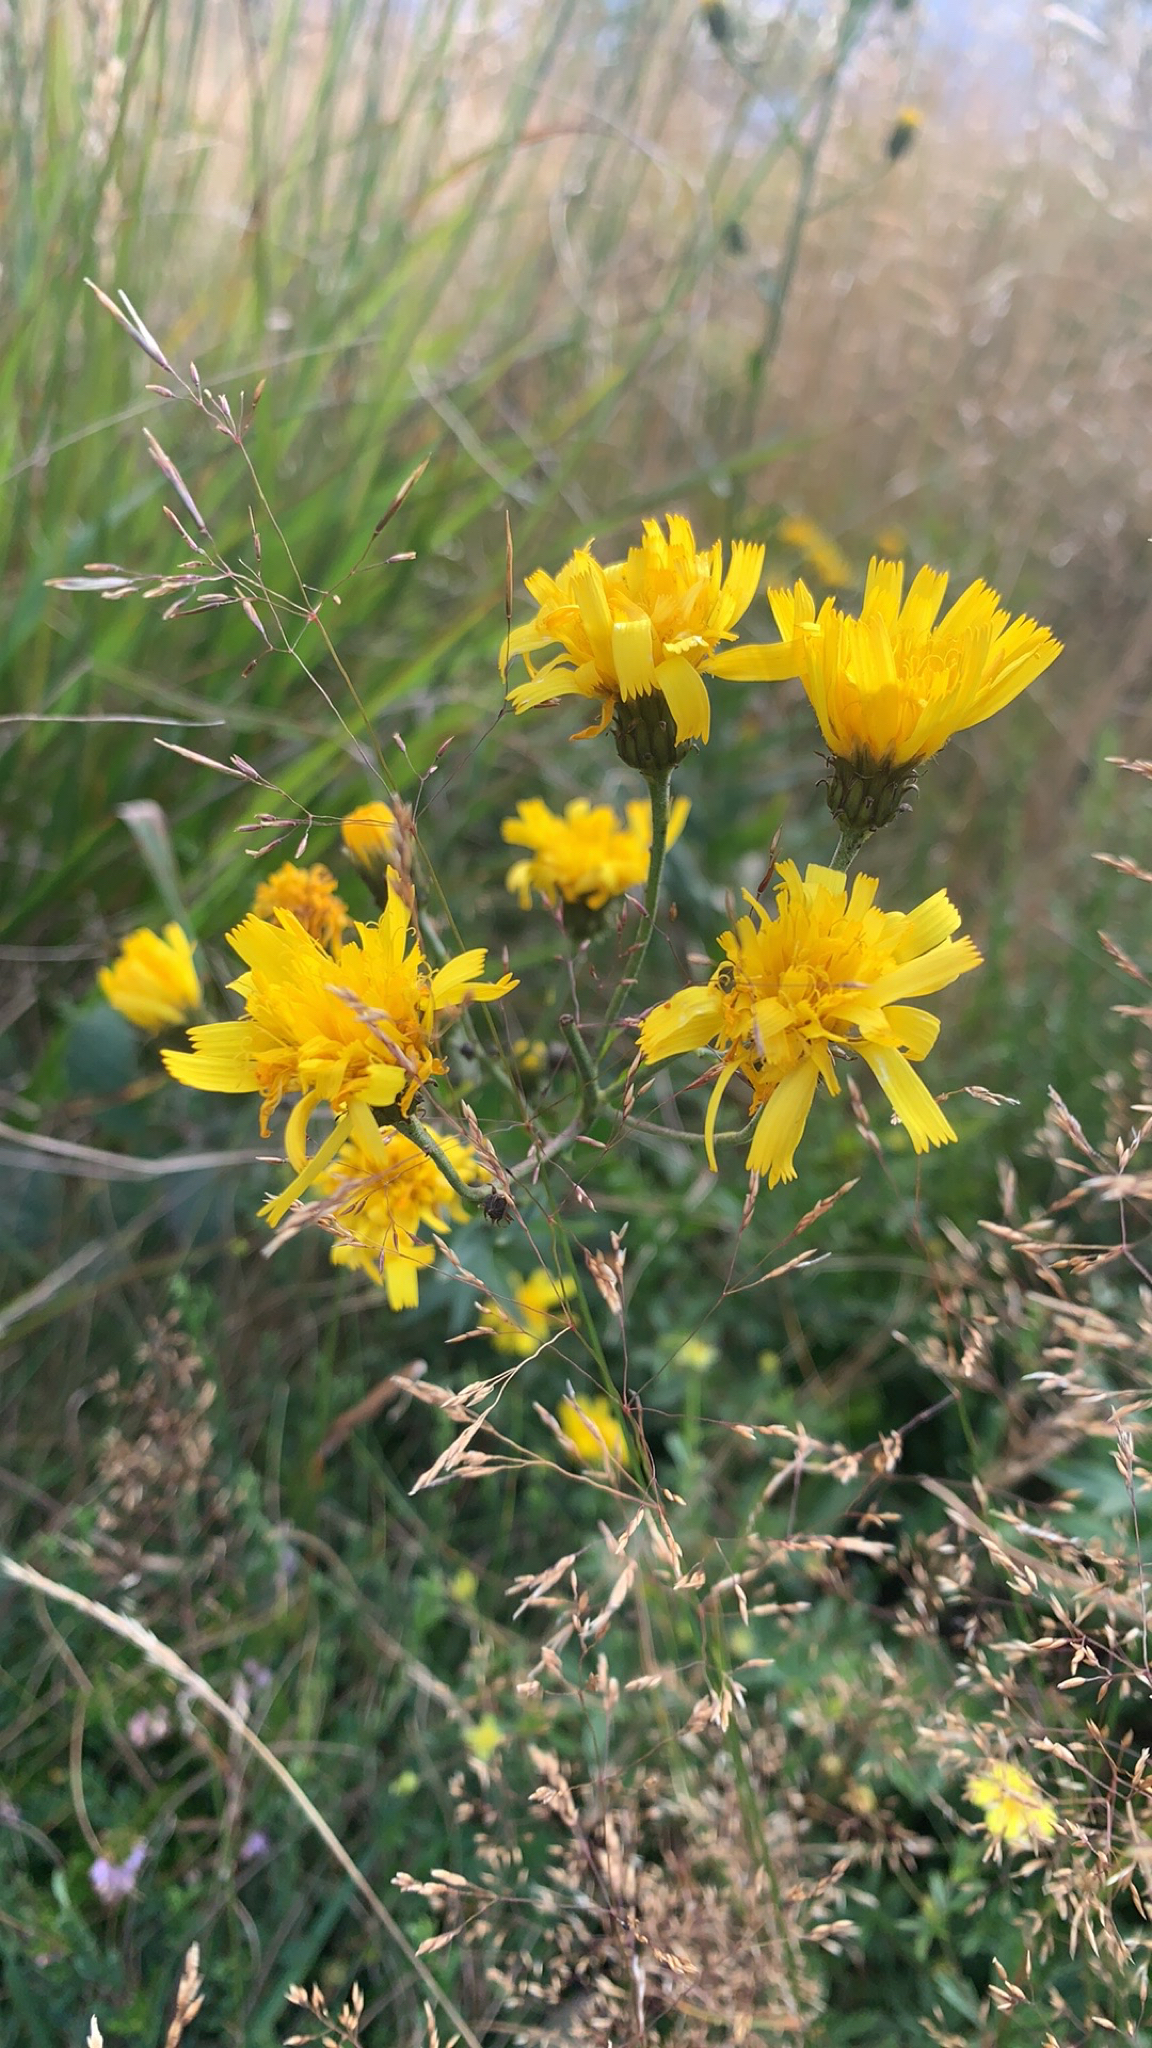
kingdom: Plantae
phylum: Tracheophyta
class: Magnoliopsida
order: Asterales
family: Asteraceae
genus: Hieracium
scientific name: Hieracium umbellatum
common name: Northern hawkweed
